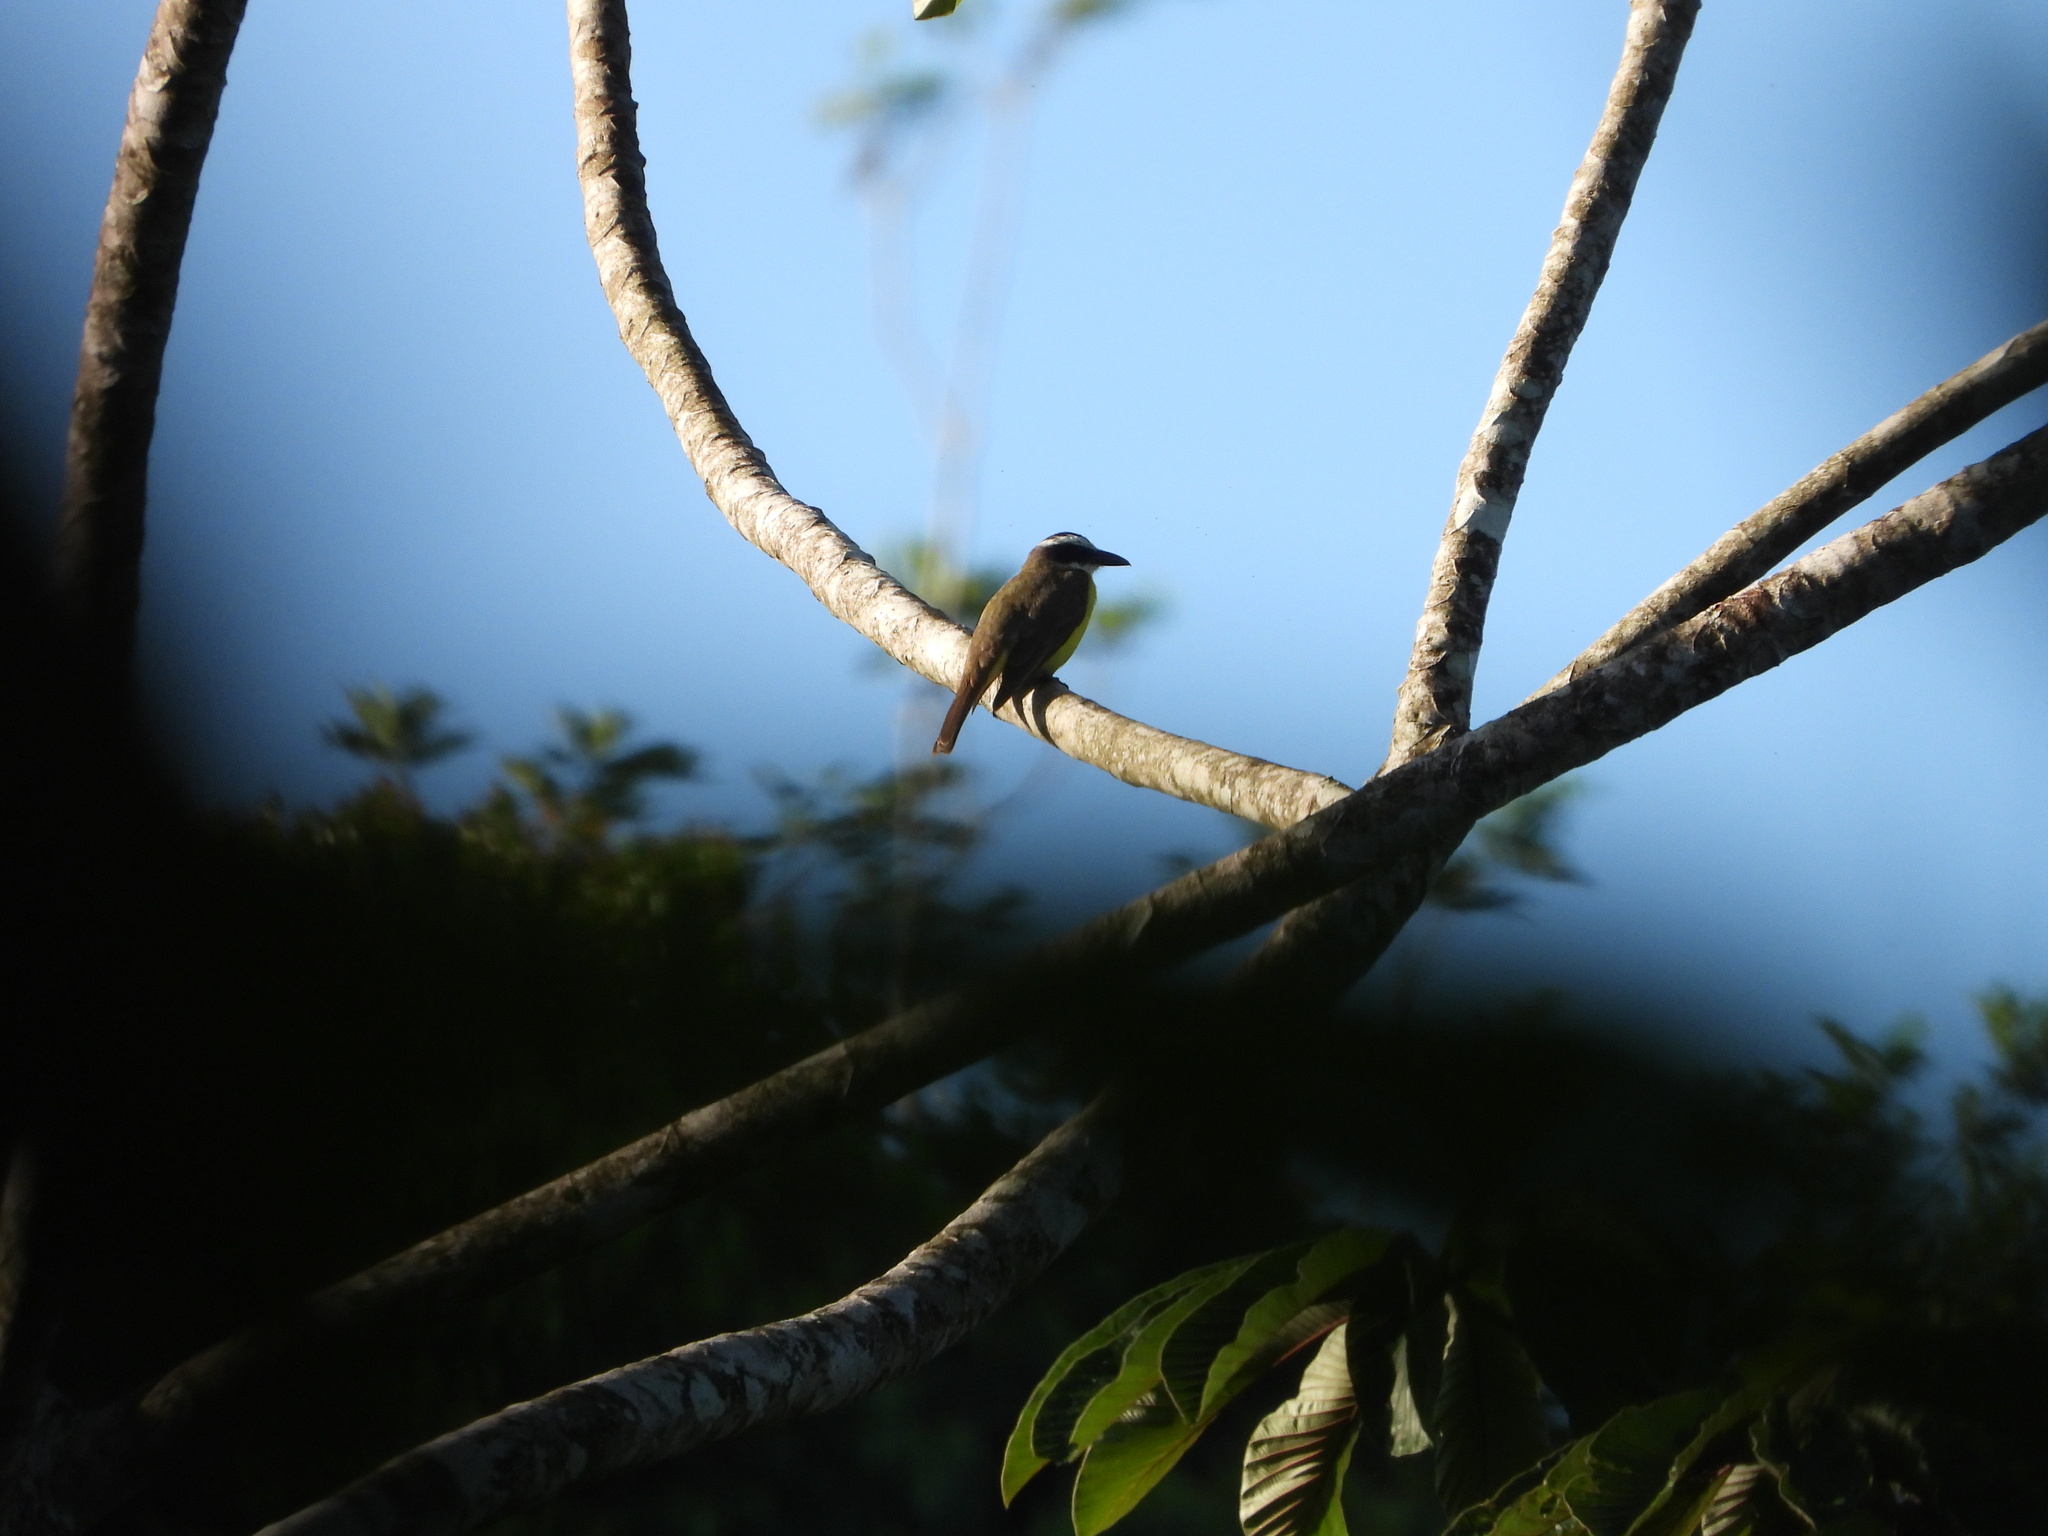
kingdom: Animalia
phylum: Chordata
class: Aves
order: Passeriformes
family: Tyrannidae
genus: Megarynchus
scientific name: Megarynchus pitangua
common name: Boat-billed flycatcher
